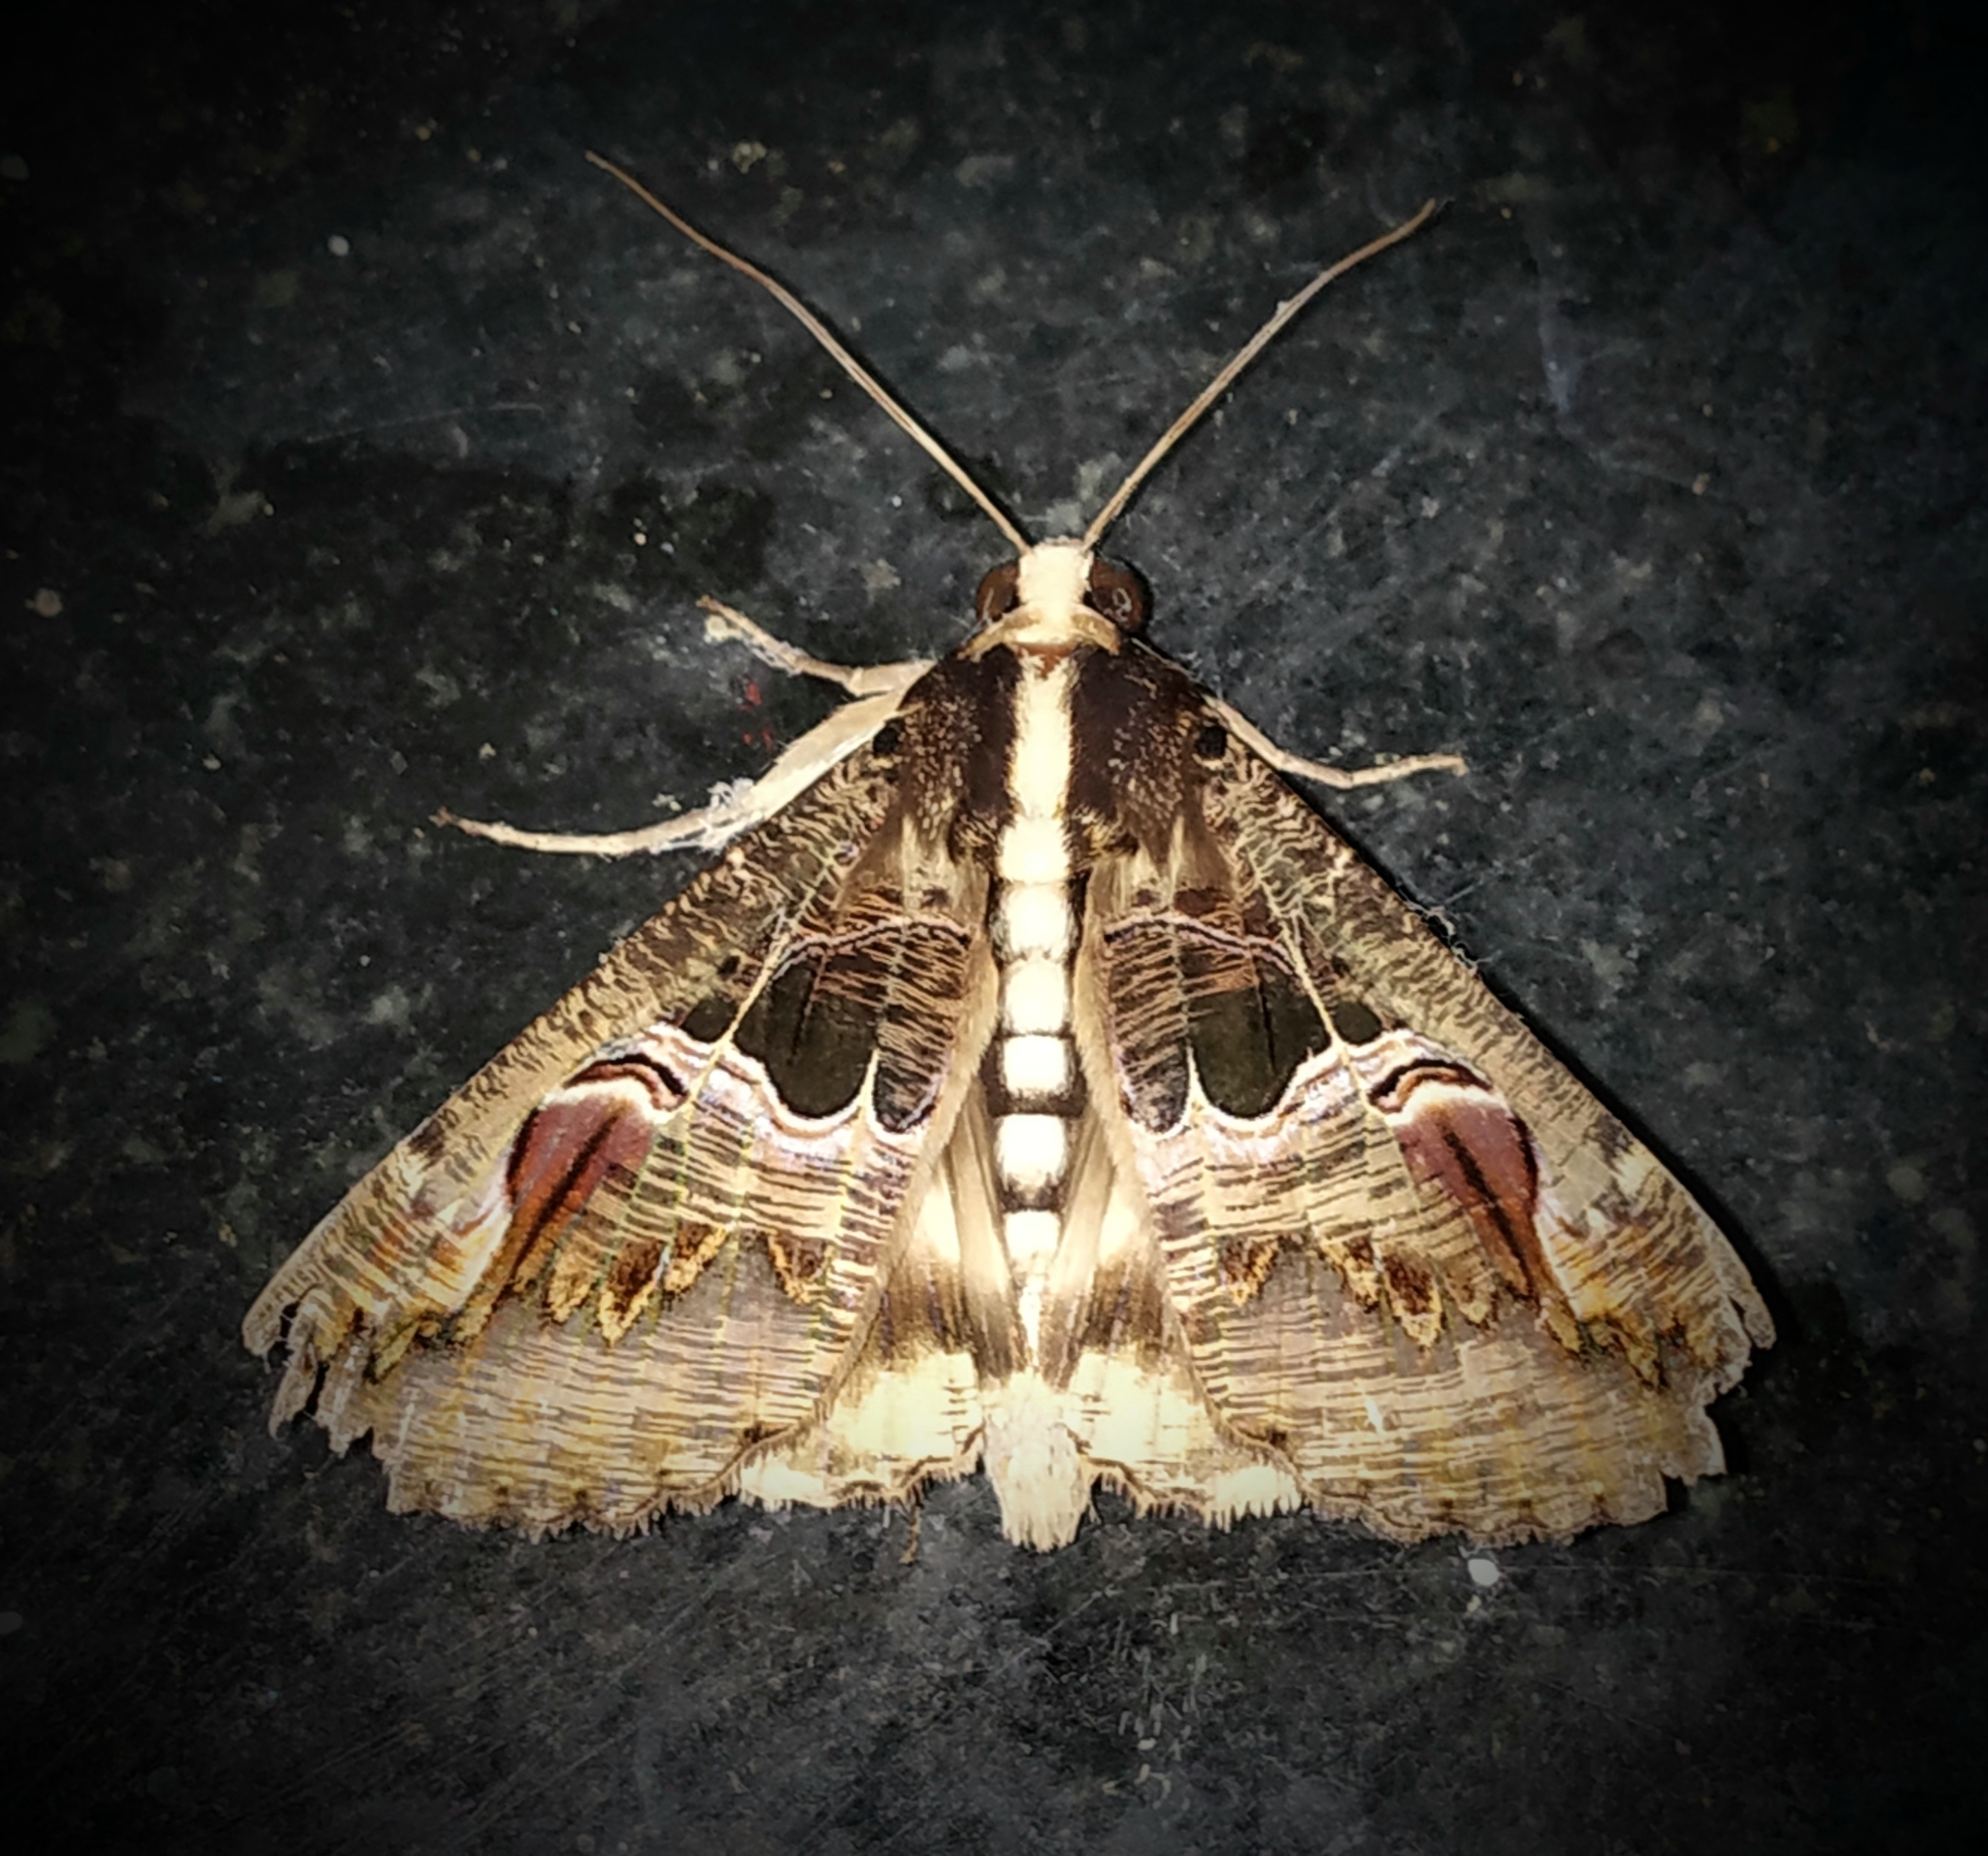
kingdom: Animalia
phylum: Arthropoda
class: Insecta
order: Lepidoptera
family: Erebidae
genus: Sphingomorpha
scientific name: Sphingomorpha chlorea
